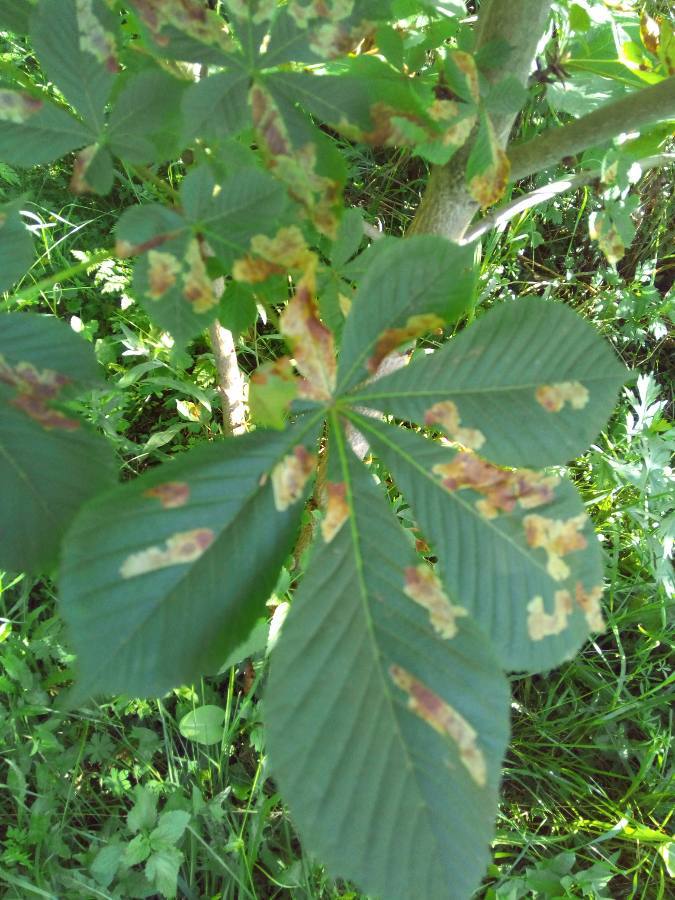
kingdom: Plantae
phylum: Tracheophyta
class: Magnoliopsida
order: Sapindales
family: Sapindaceae
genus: Aesculus
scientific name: Aesculus hippocastanum
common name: Horse-chestnut
